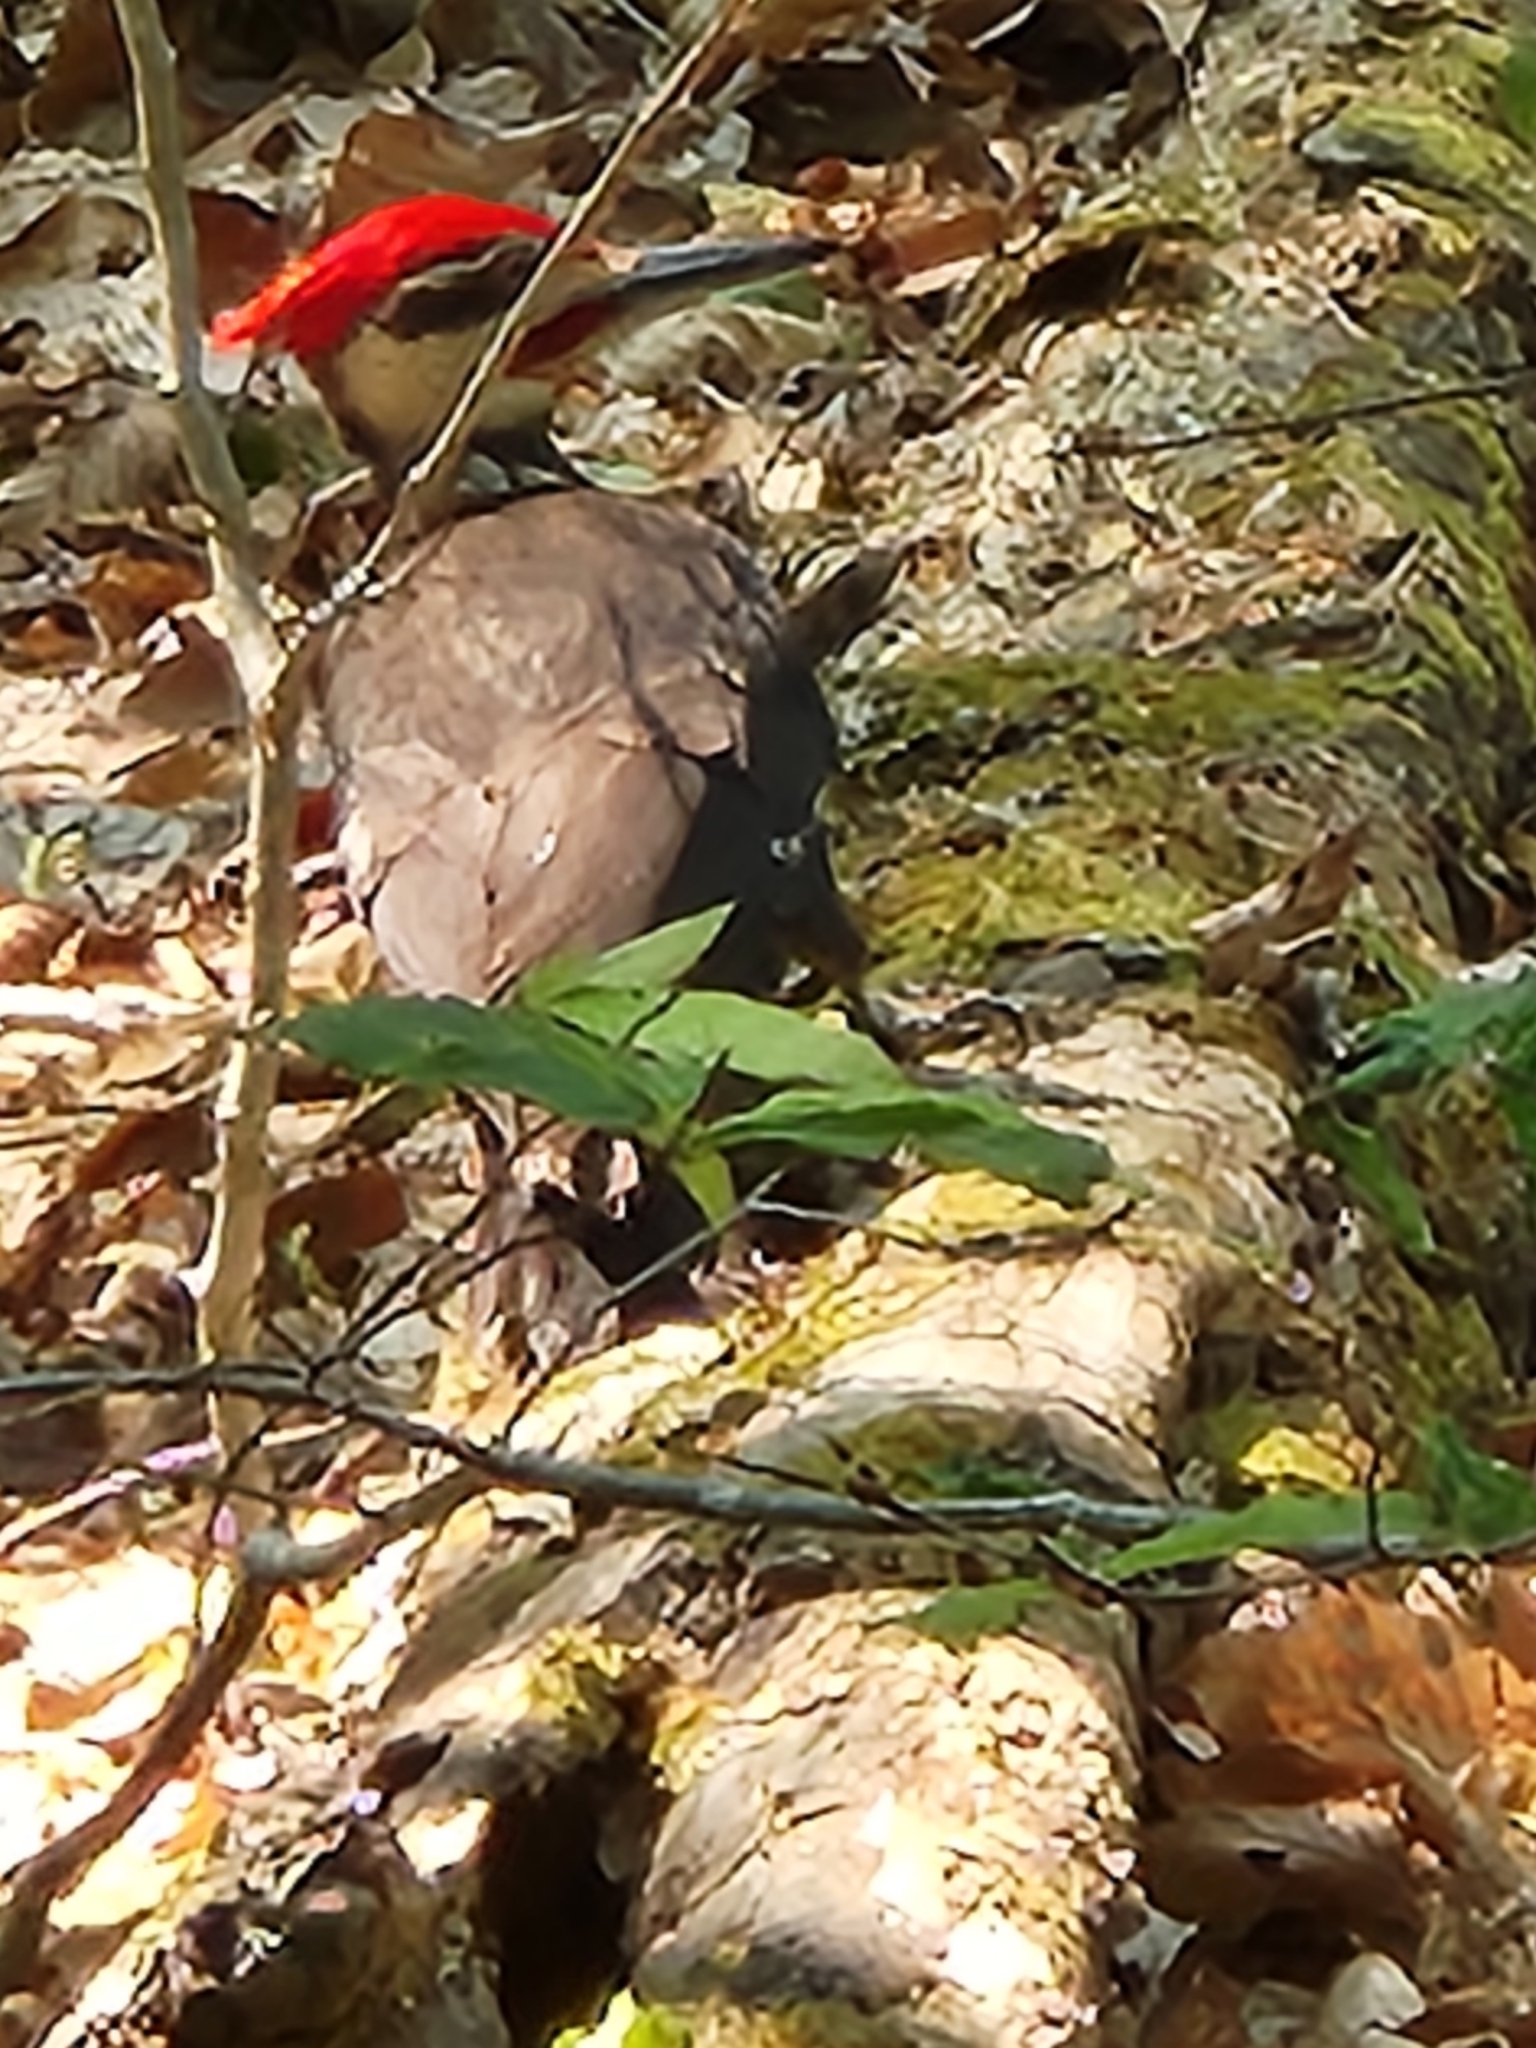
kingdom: Animalia
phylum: Chordata
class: Aves
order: Piciformes
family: Picidae
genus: Dryocopus
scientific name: Dryocopus pileatus
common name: Pileated woodpecker
